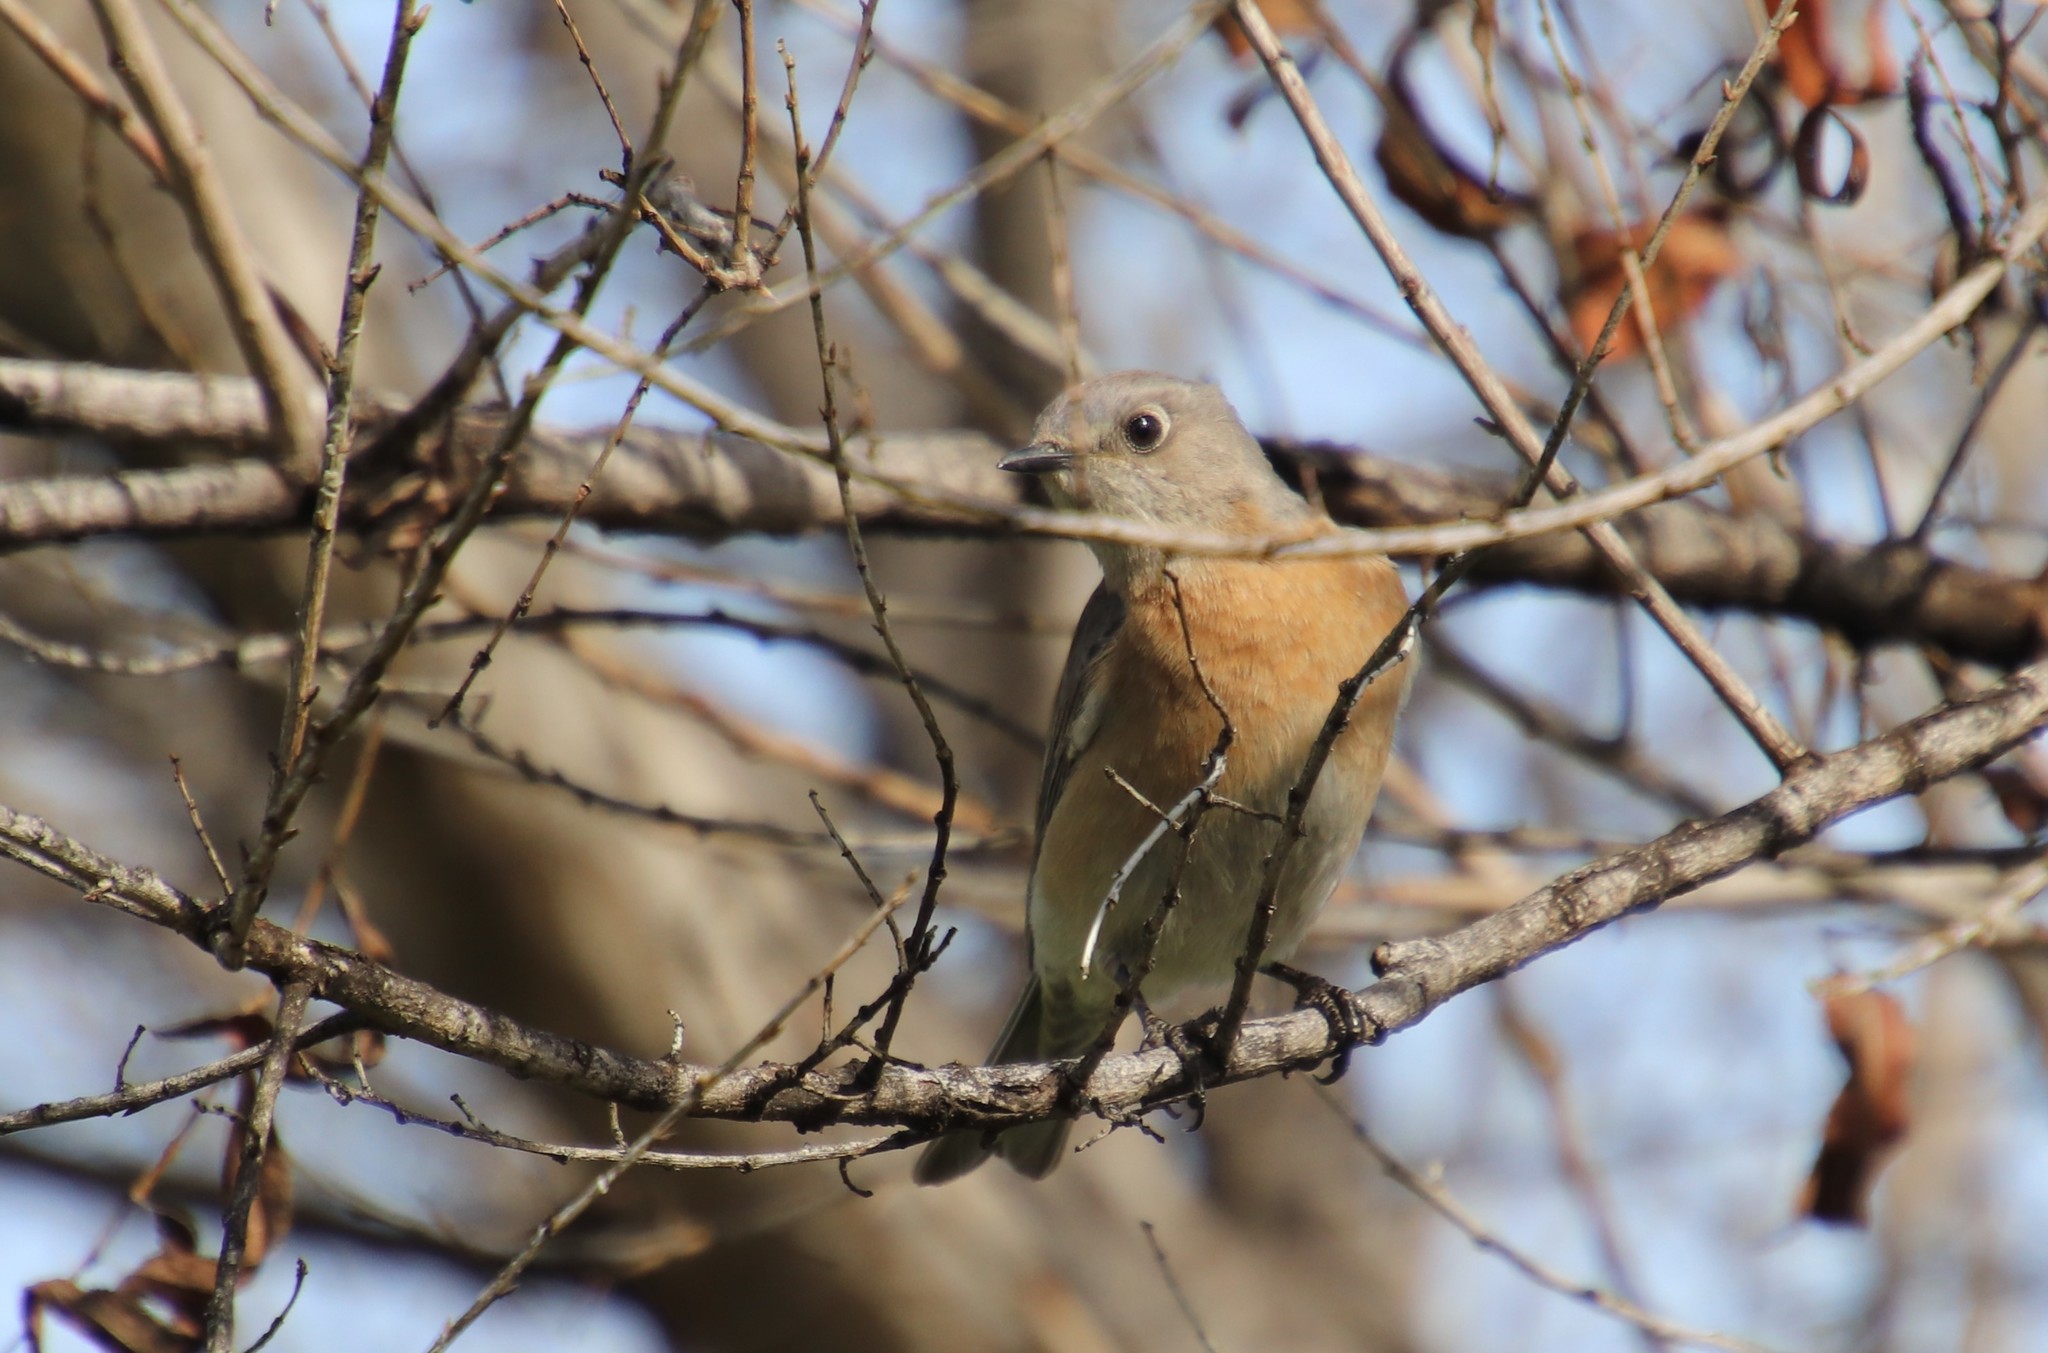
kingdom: Animalia
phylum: Chordata
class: Aves
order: Passeriformes
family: Turdidae
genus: Sialia
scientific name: Sialia mexicana
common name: Western bluebird
